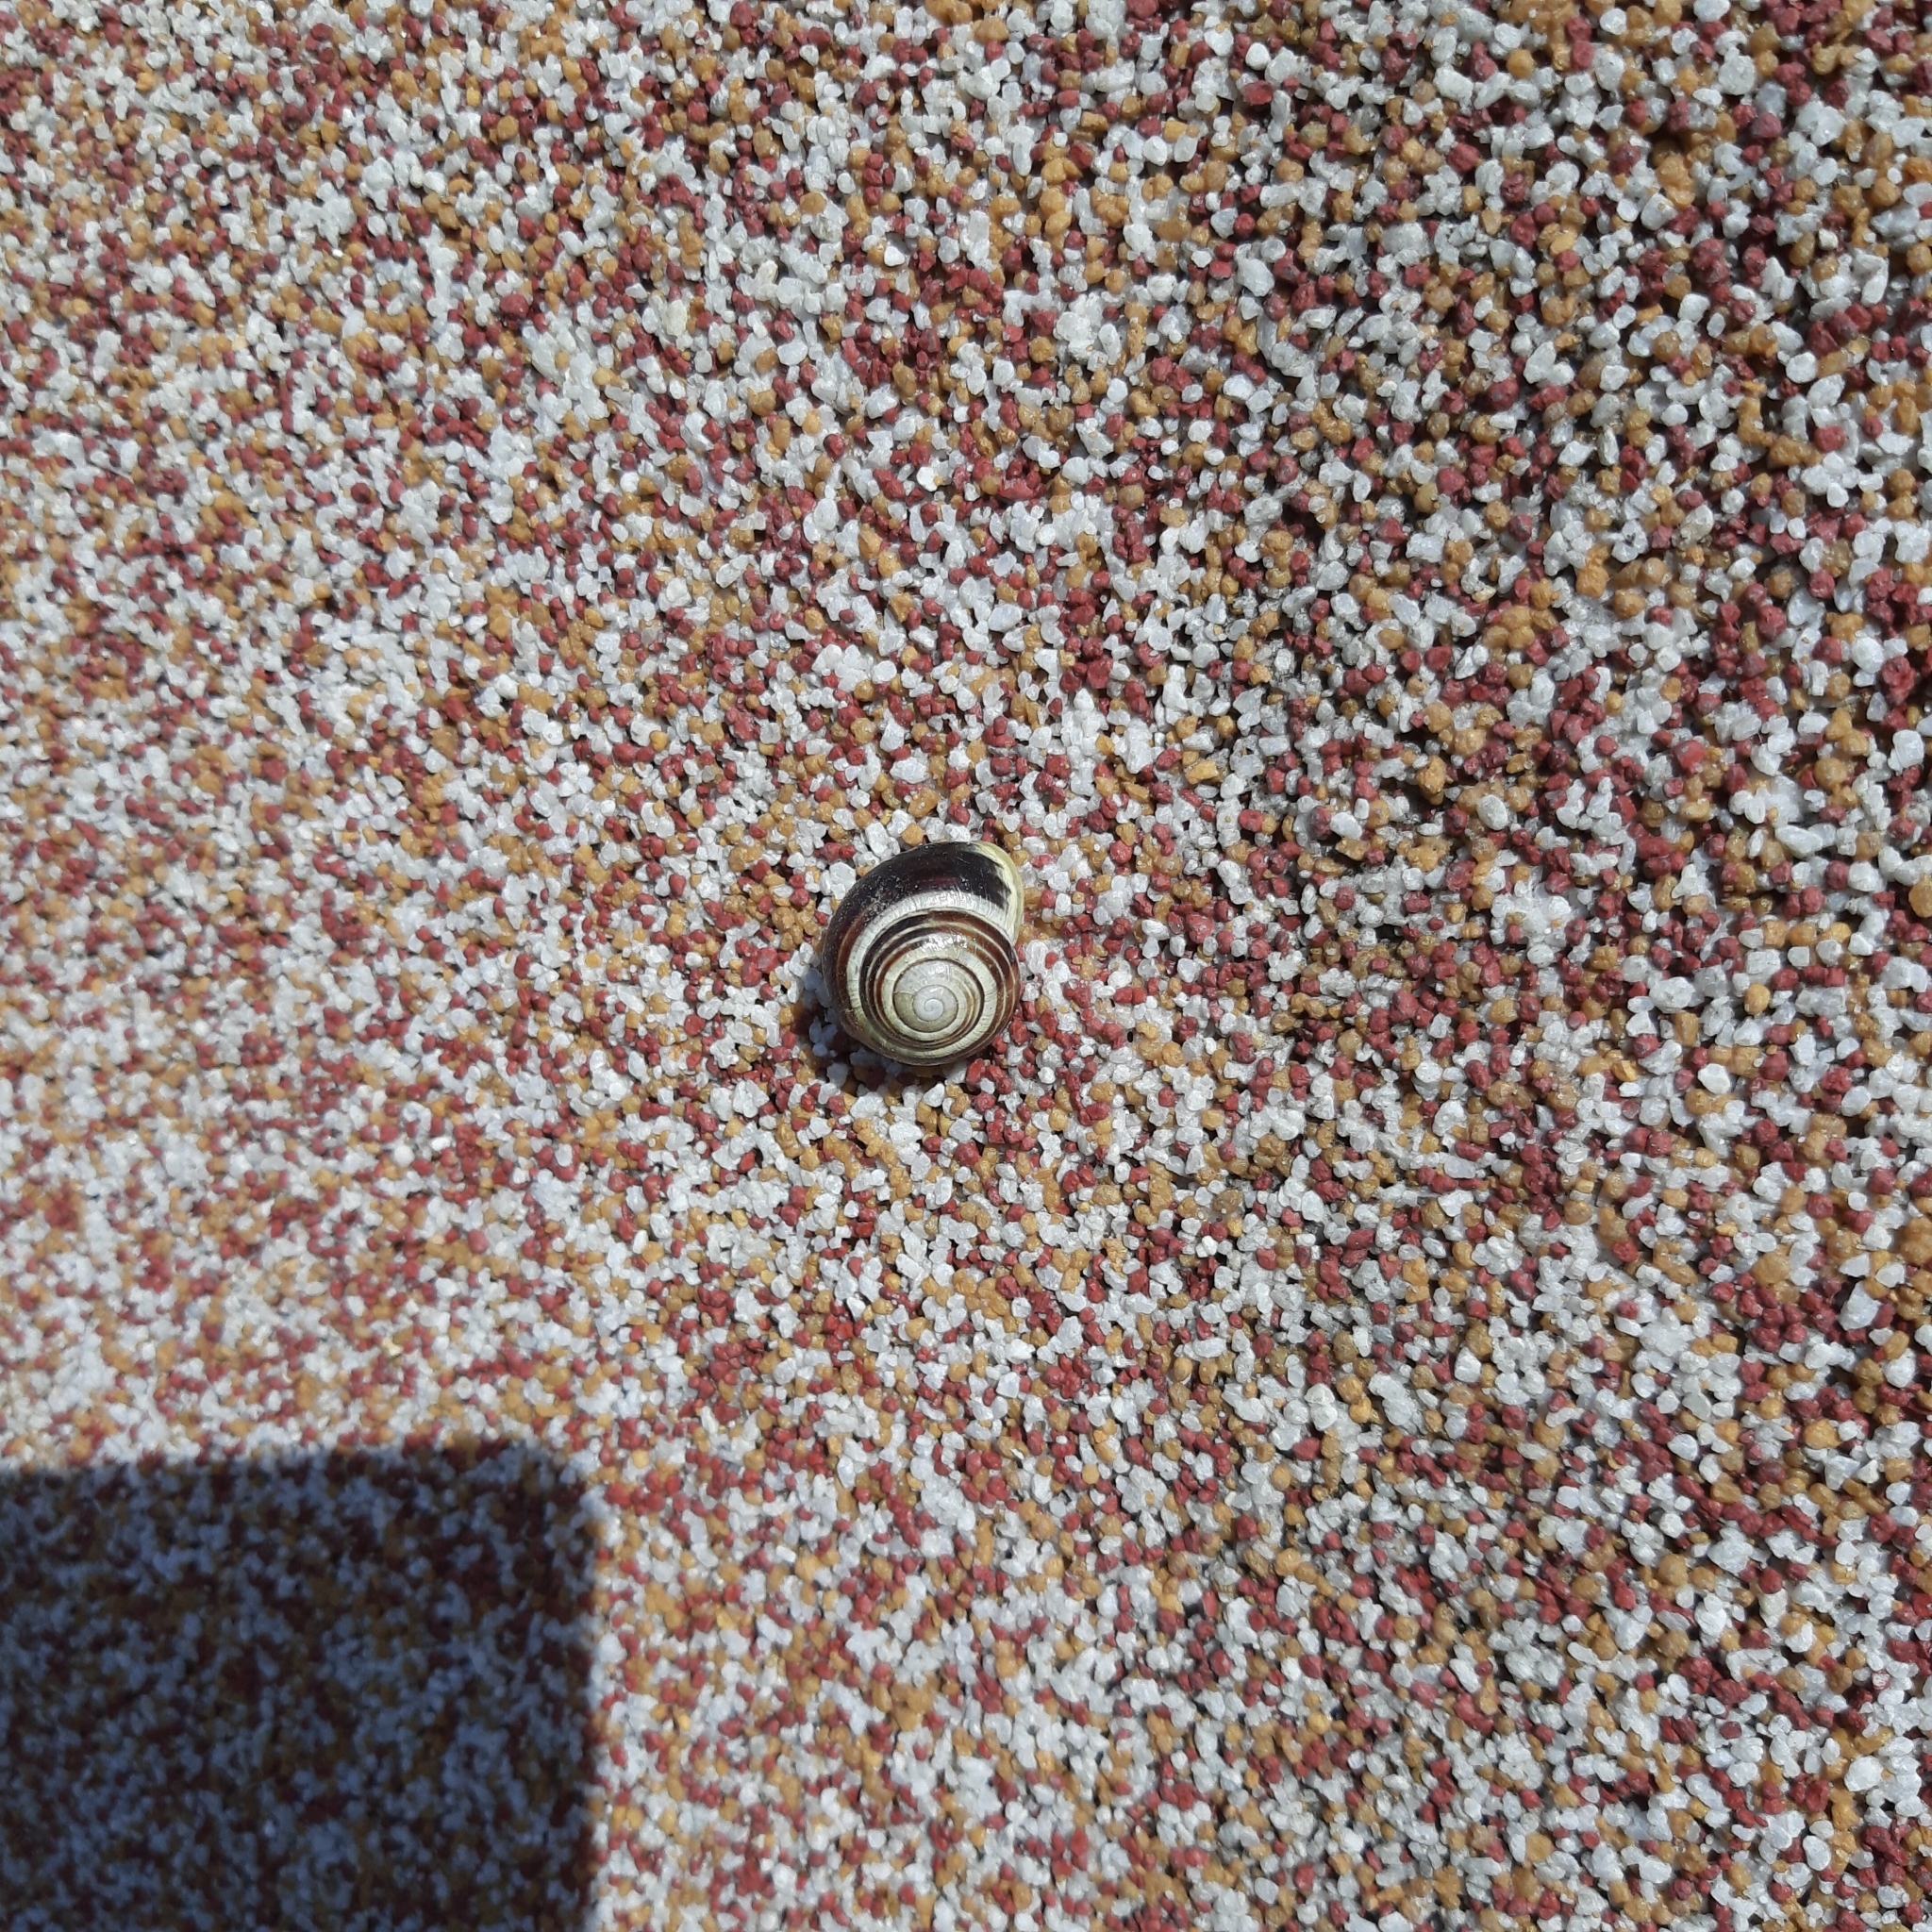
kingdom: Animalia
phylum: Mollusca
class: Gastropoda
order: Stylommatophora
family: Helicidae
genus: Cepaea
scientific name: Cepaea hortensis
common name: White-lip gardensnail
